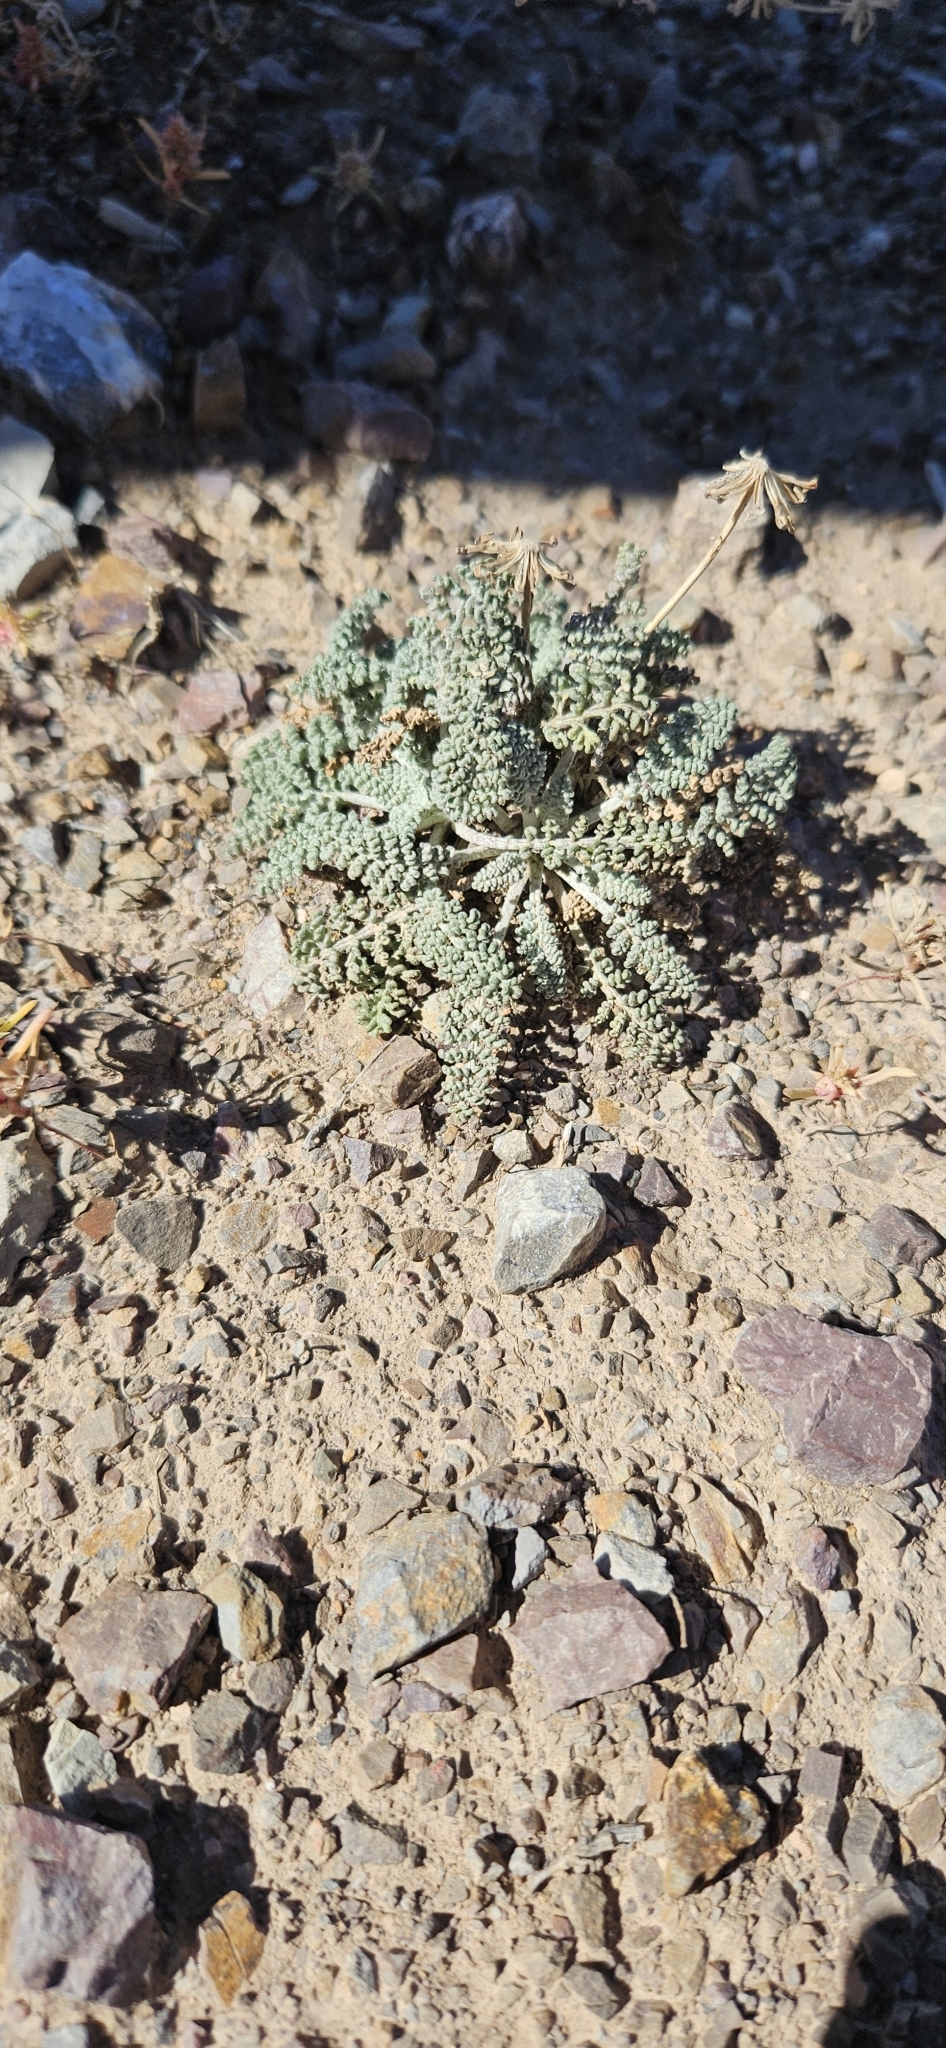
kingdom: Plantae
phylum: Tracheophyta
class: Magnoliopsida
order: Asterales
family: Asteraceae
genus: Chaenactis
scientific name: Chaenactis douglasii
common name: Hoary pincushion
